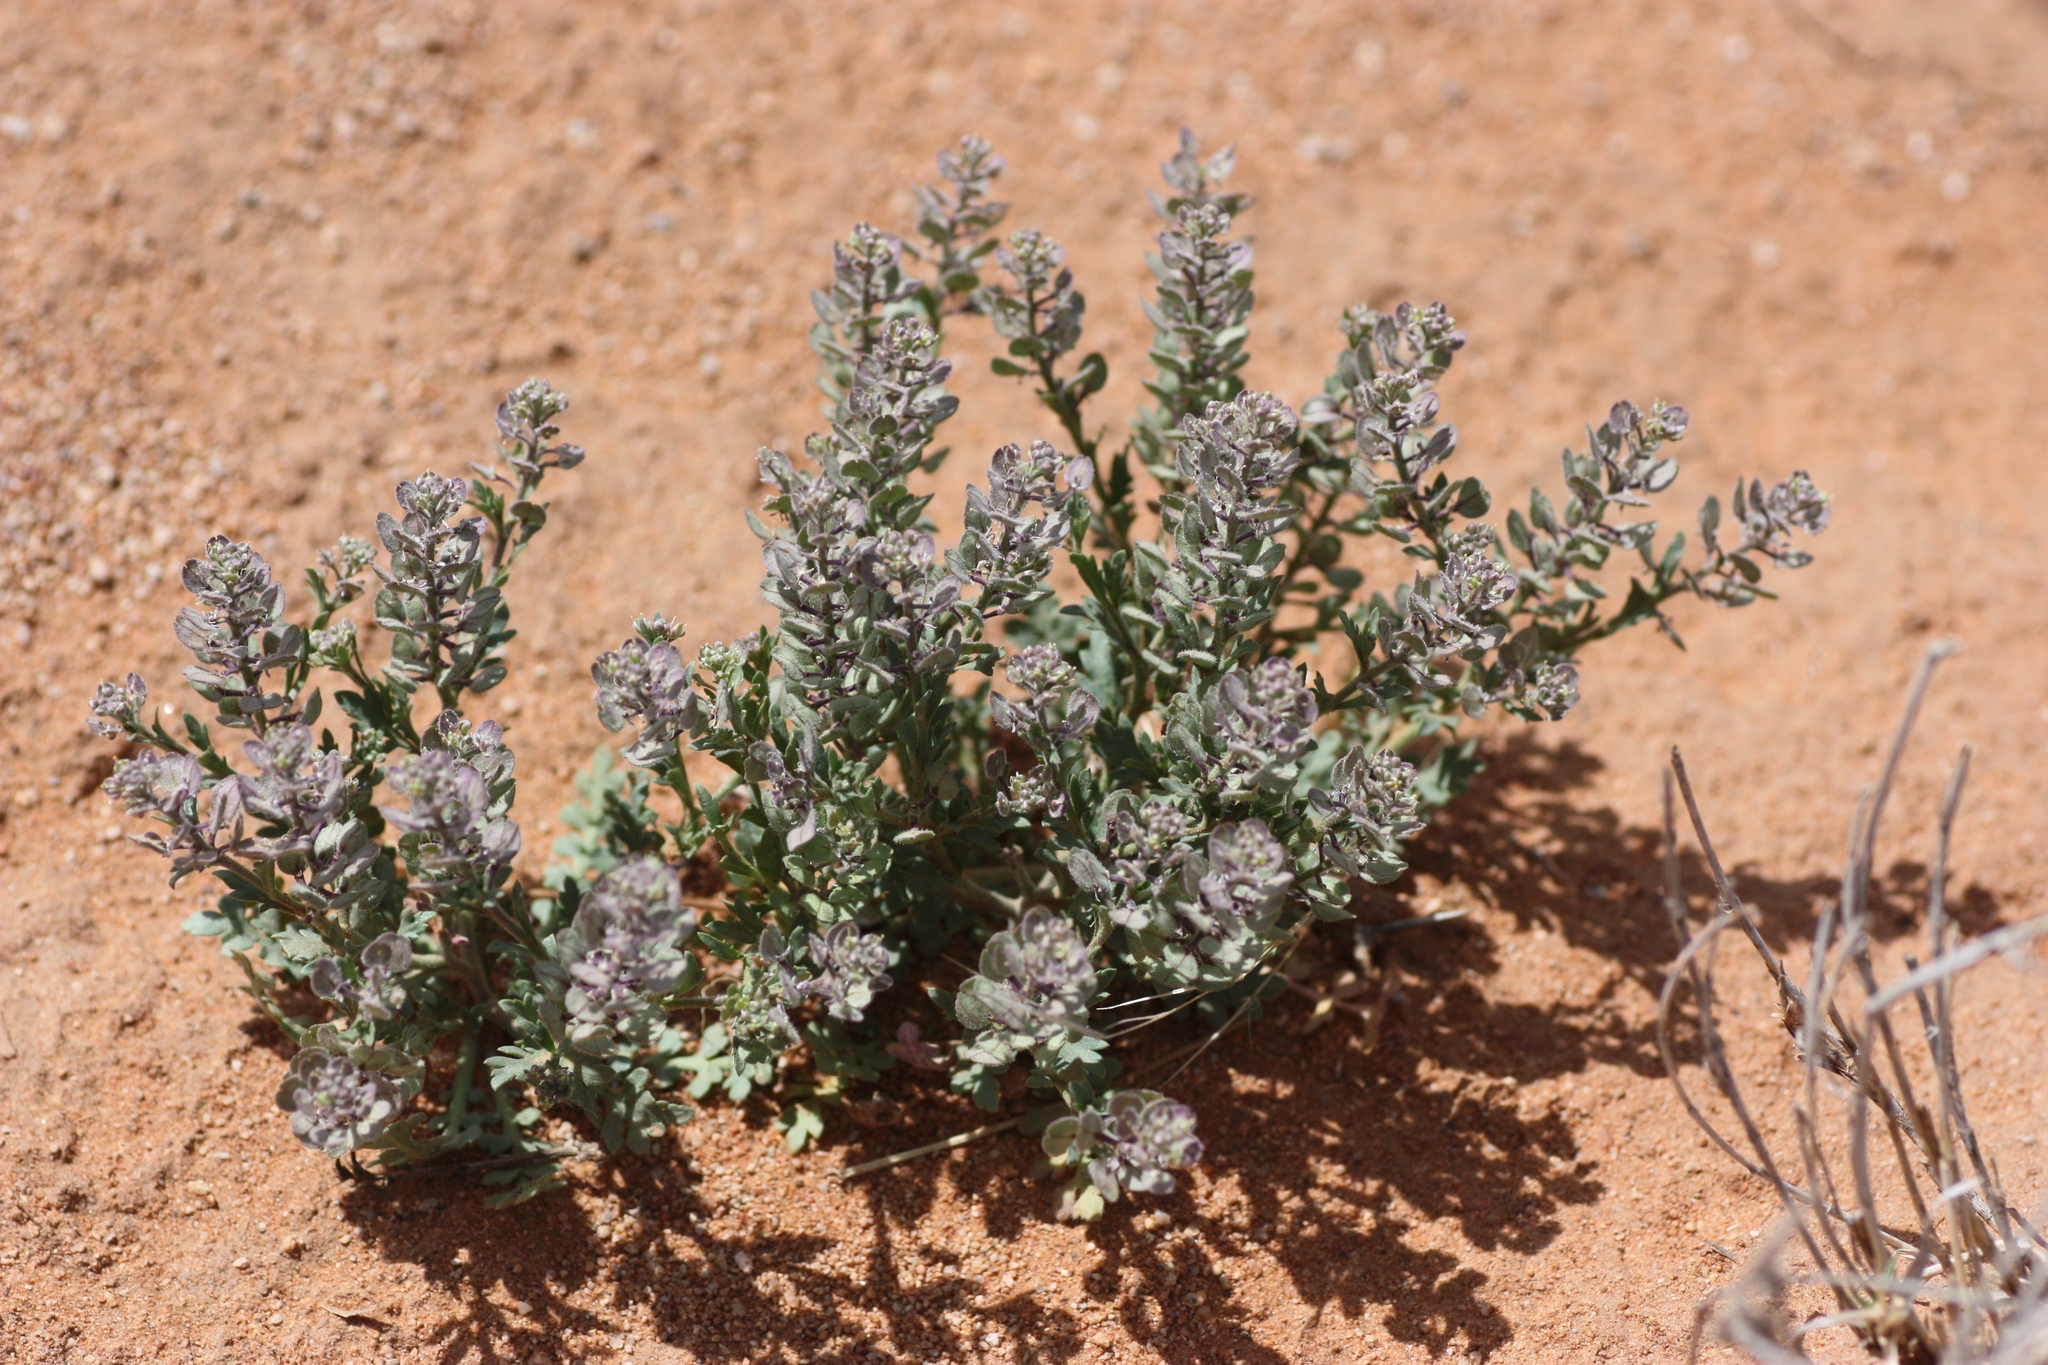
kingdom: Plantae
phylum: Tracheophyta
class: Magnoliopsida
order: Brassicales
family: Brassicaceae
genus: Lepidium
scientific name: Lepidium lasiocarpum
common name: Hairy-pod pepperwort
